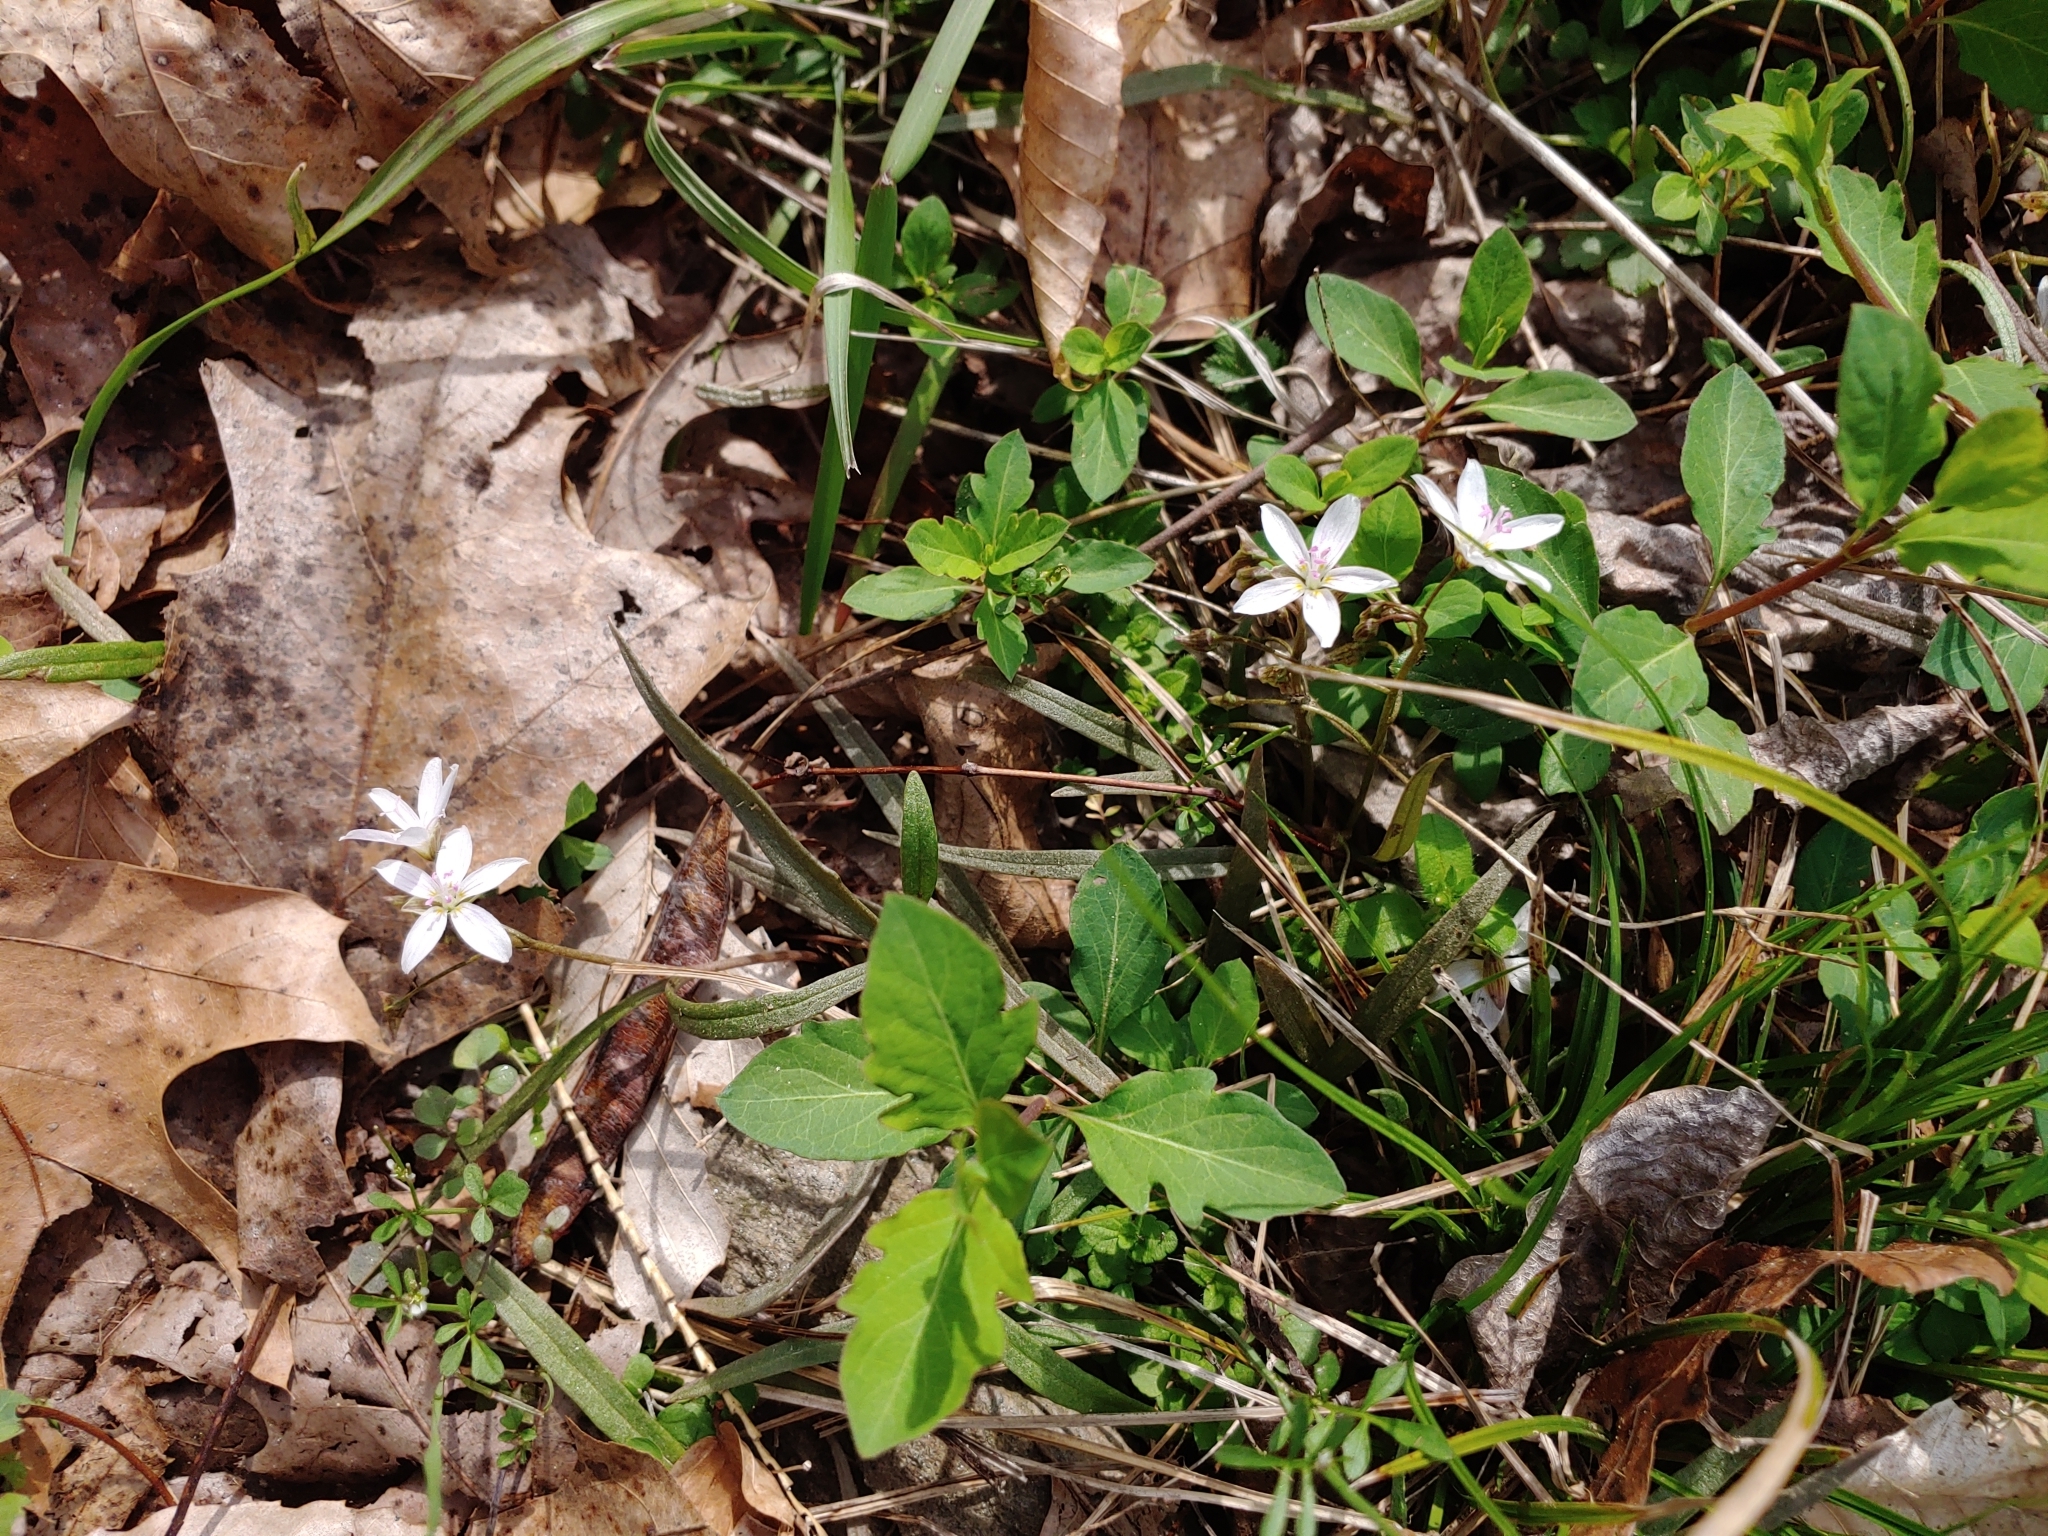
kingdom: Plantae
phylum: Tracheophyta
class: Magnoliopsida
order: Caryophyllales
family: Montiaceae
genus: Claytonia
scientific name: Claytonia virginica
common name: Virginia springbeauty
